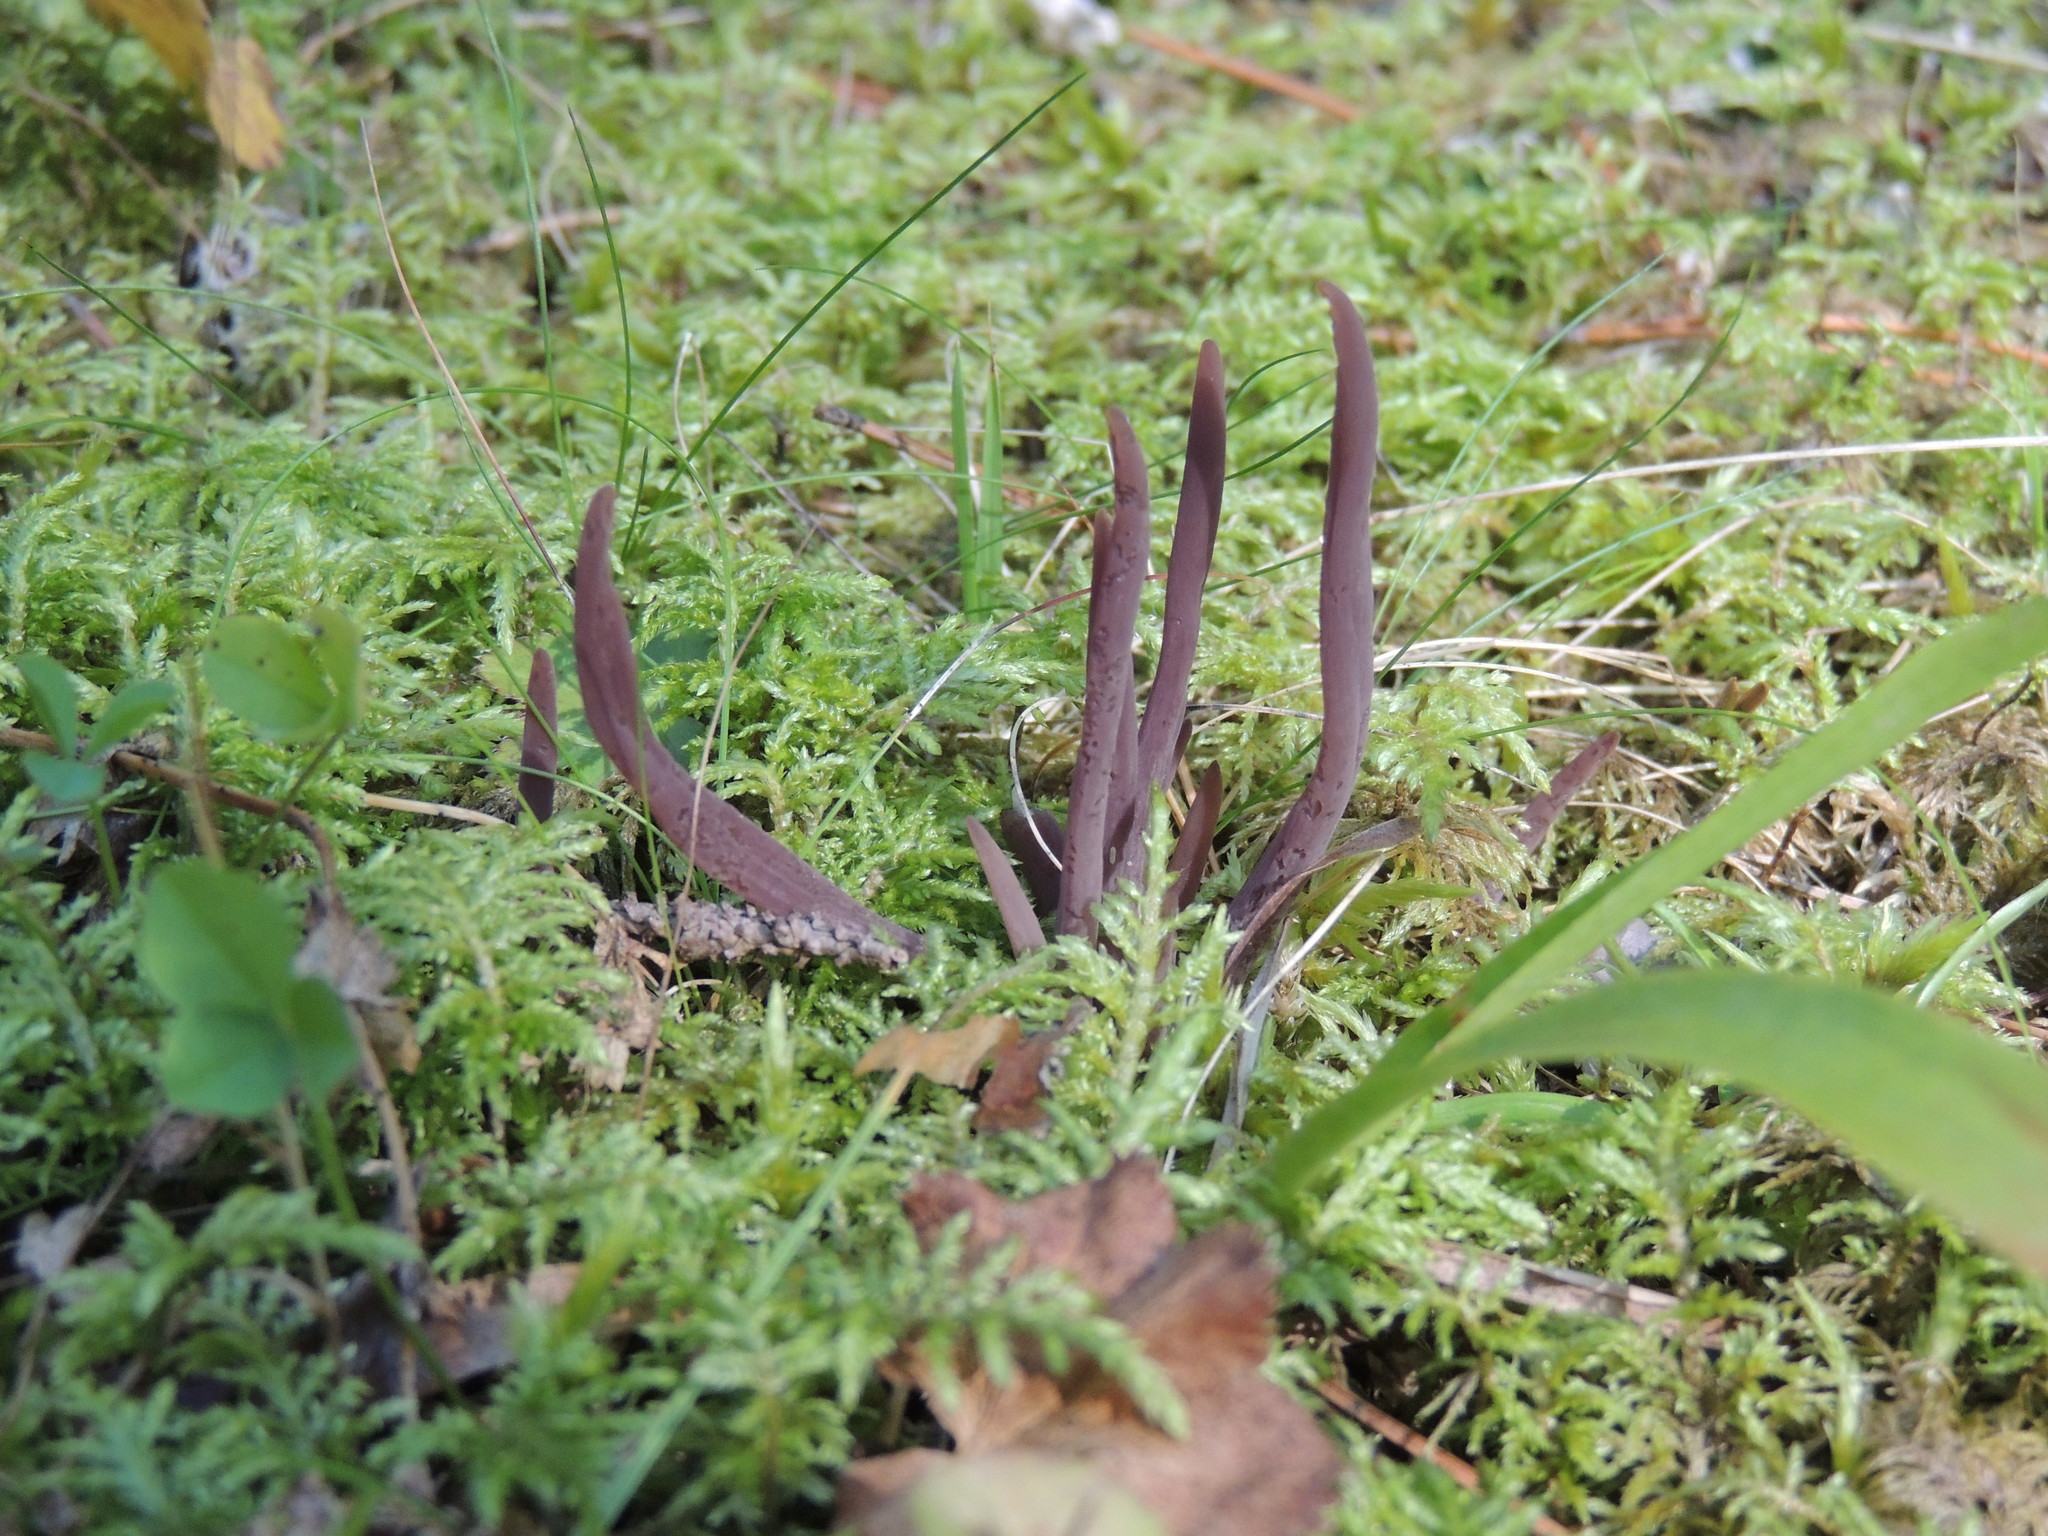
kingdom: Fungi
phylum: Basidiomycota
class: Agaricomycetes
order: Hymenochaetales
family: Rickenellaceae
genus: Alloclavaria
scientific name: Alloclavaria purpurea
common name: Purple spindles
